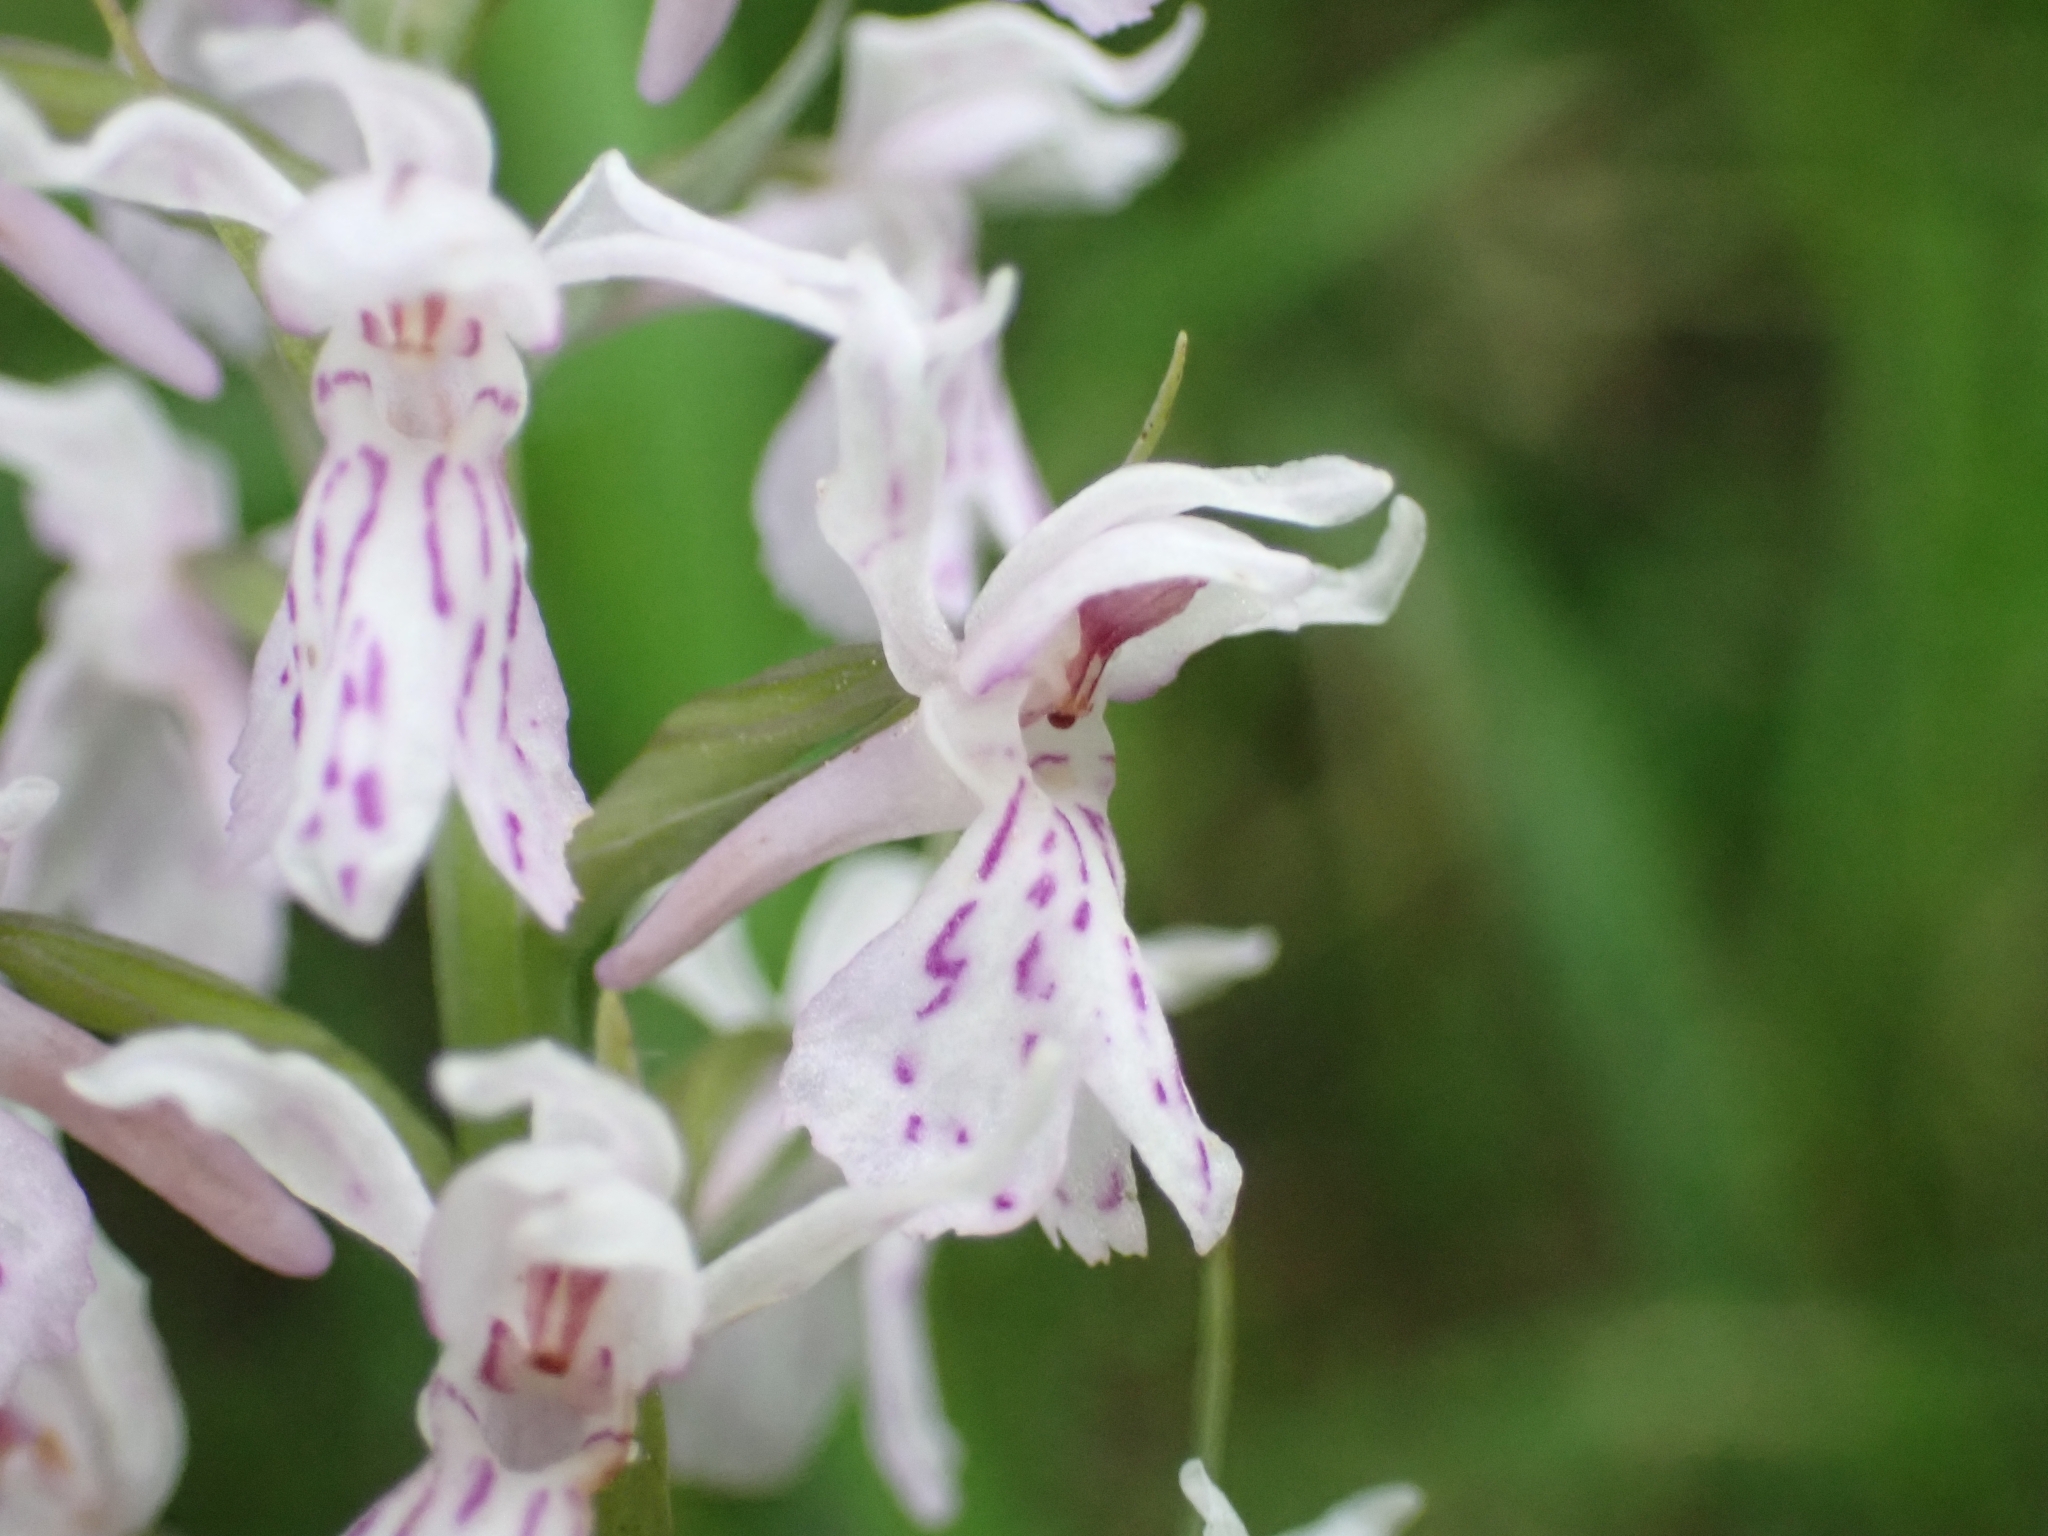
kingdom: Plantae
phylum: Tracheophyta
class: Liliopsida
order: Asparagales
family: Orchidaceae
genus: Dactylorhiza
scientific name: Dactylorhiza maculata
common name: Heath spotted-orchid
